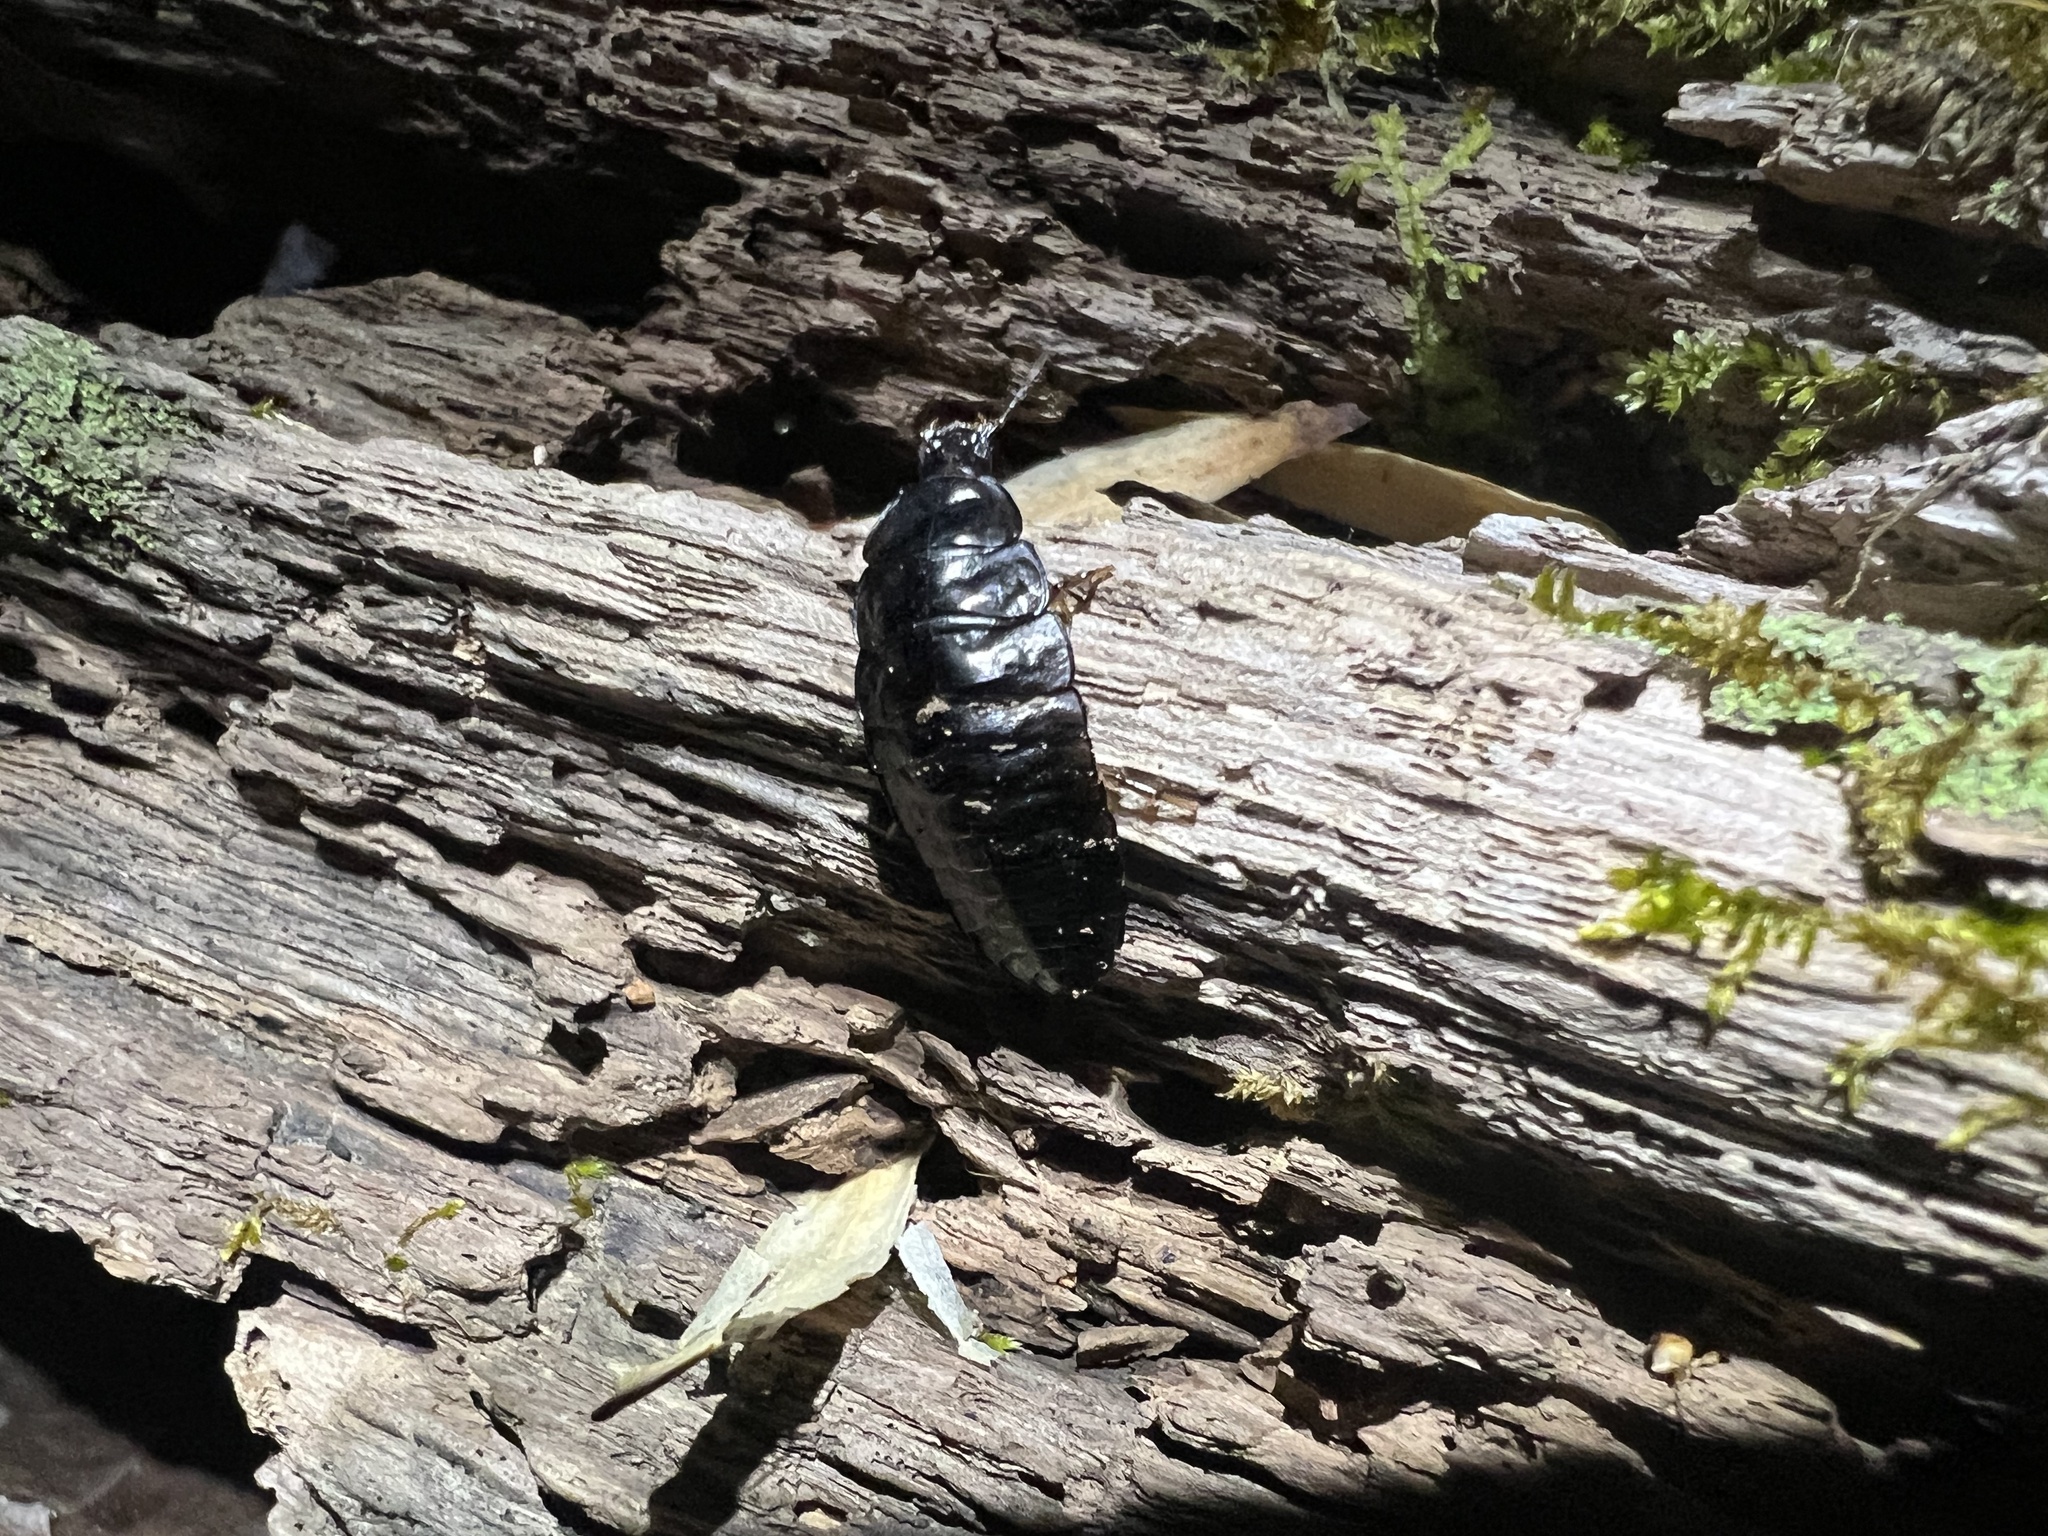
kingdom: Animalia
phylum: Arthropoda
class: Insecta
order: Coleoptera
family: Carabidae
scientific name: Carabidae
